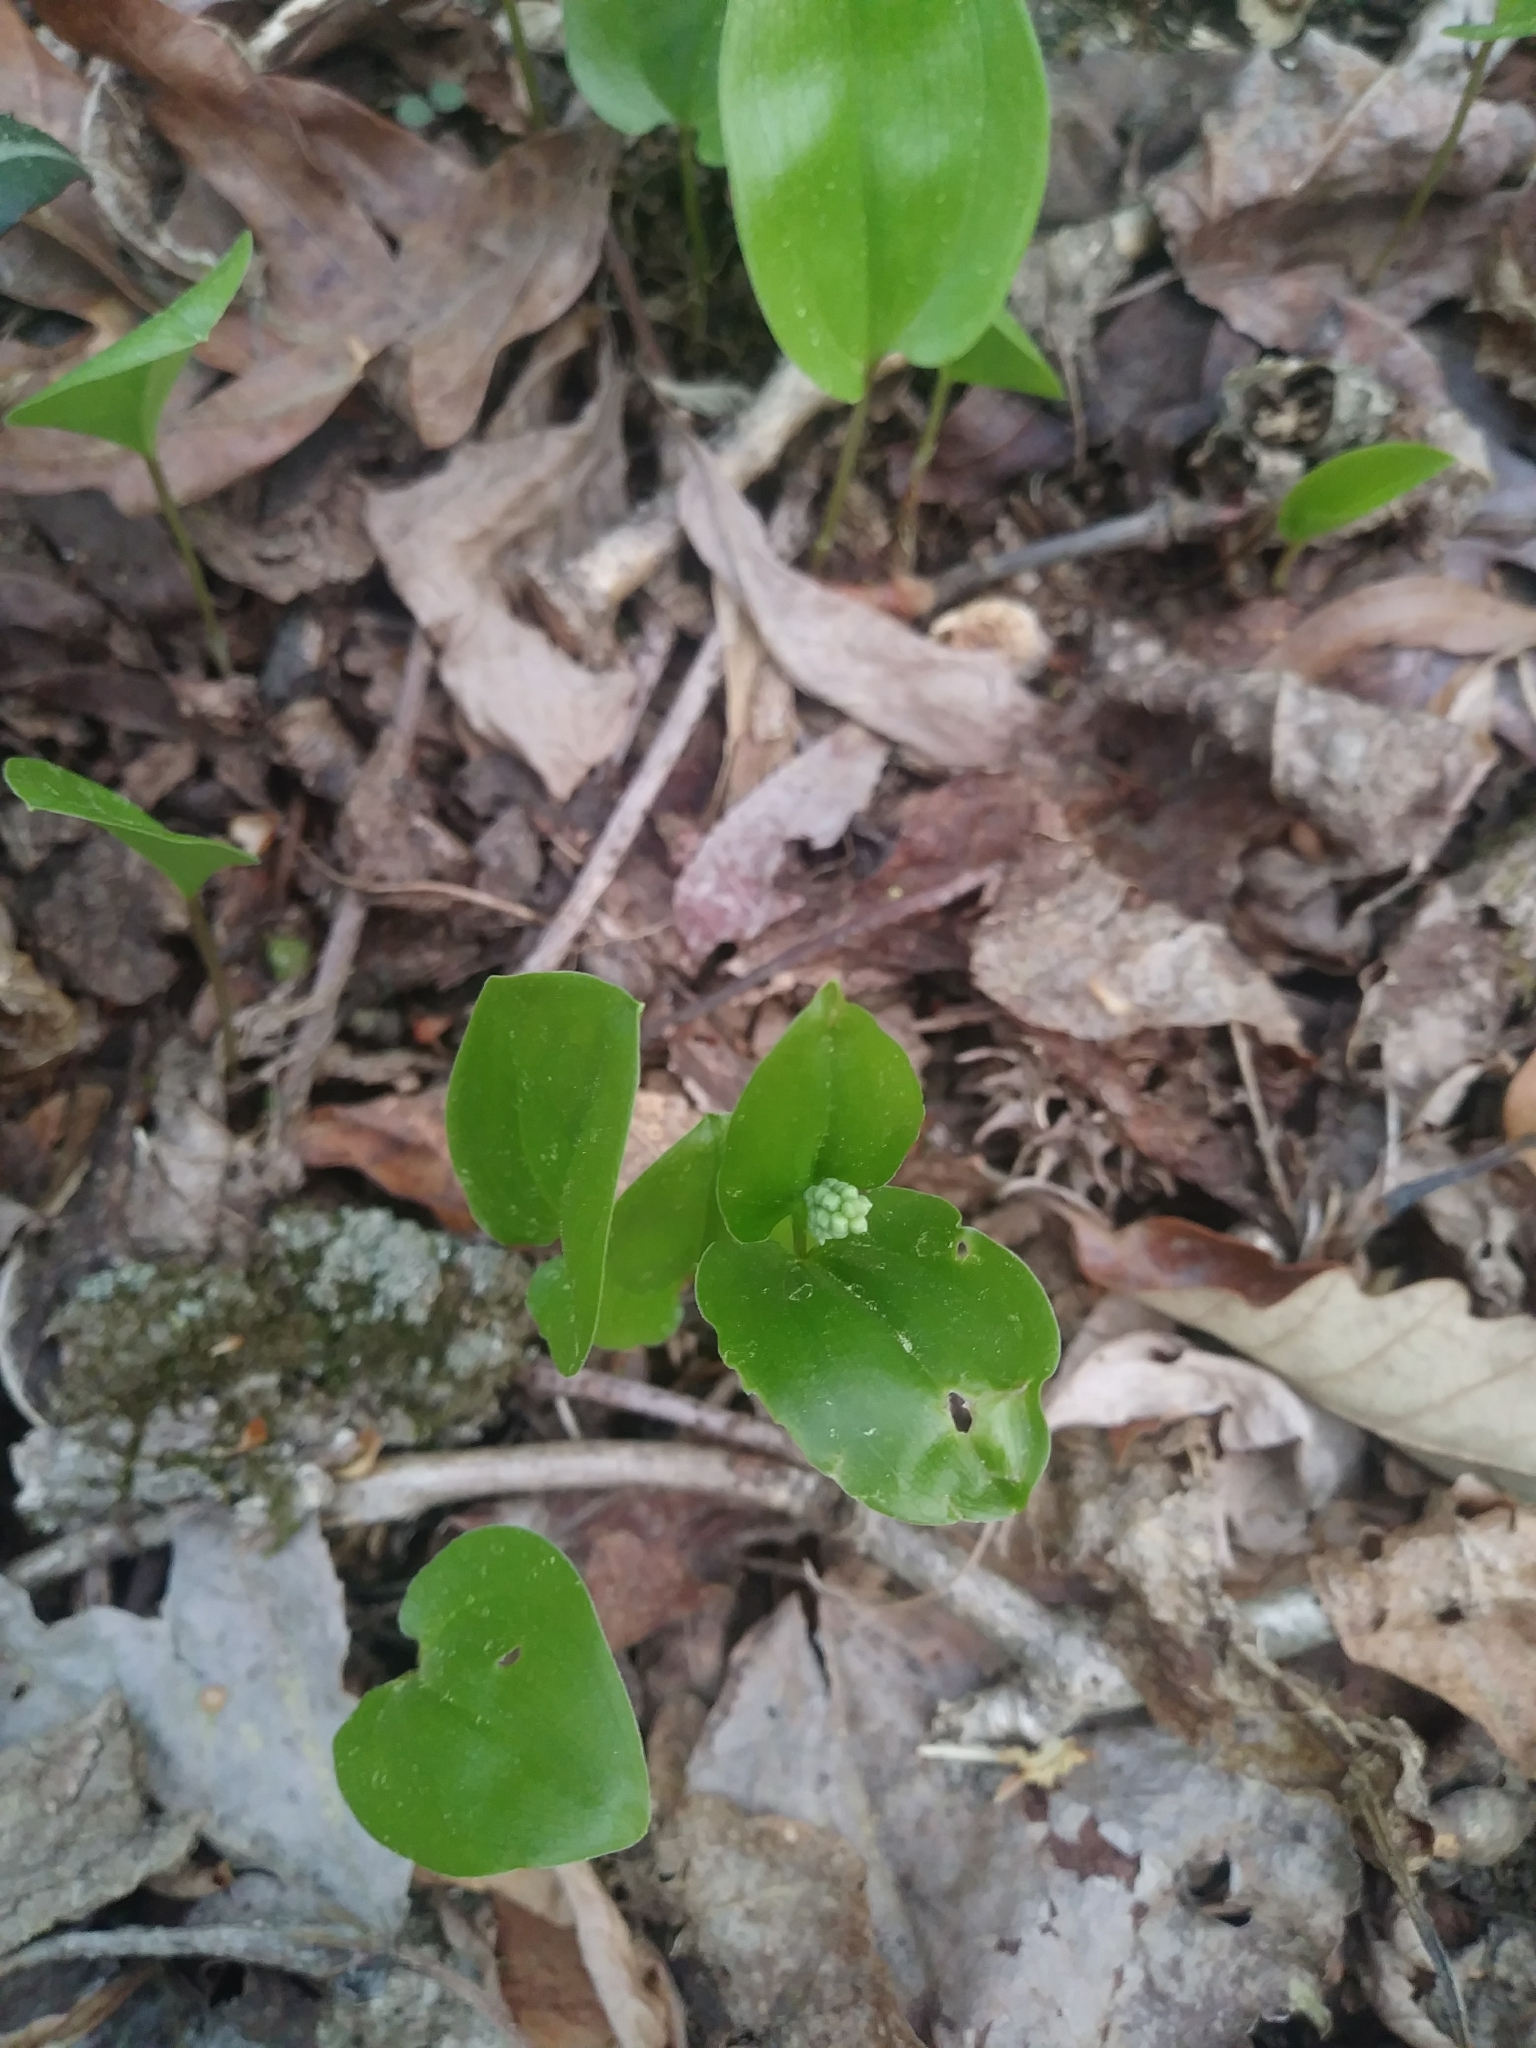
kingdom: Plantae
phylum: Tracheophyta
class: Liliopsida
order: Asparagales
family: Asparagaceae
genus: Maianthemum
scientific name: Maianthemum canadense
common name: False lily-of-the-valley
